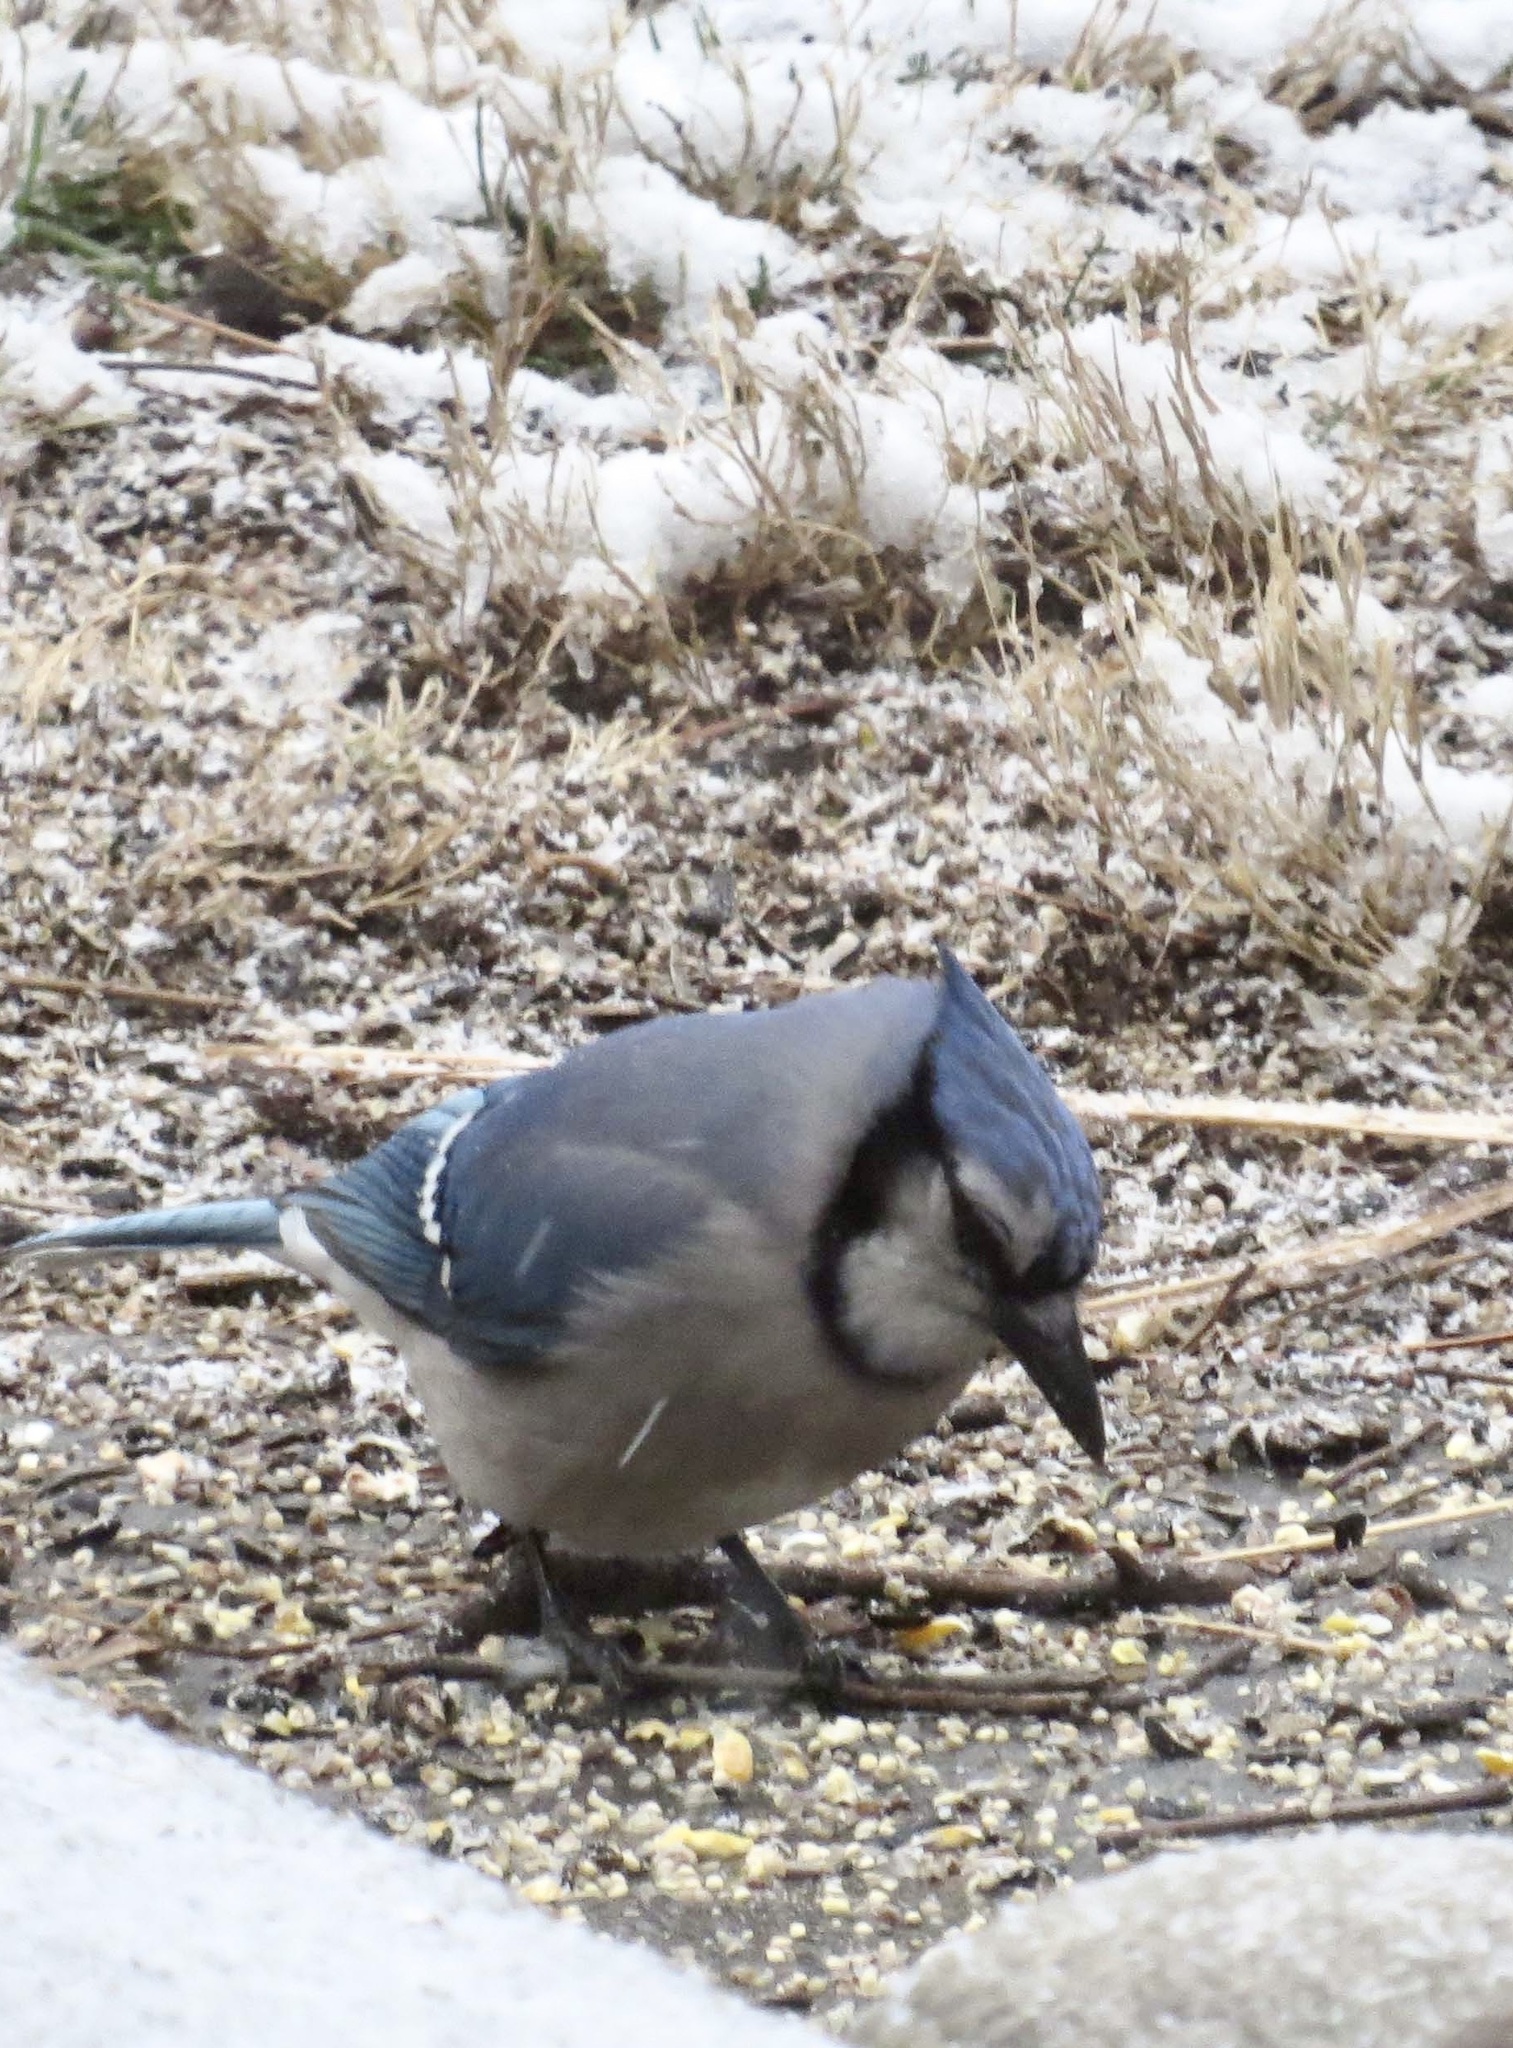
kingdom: Animalia
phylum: Chordata
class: Aves
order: Passeriformes
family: Corvidae
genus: Cyanocitta
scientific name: Cyanocitta cristata
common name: Blue jay
